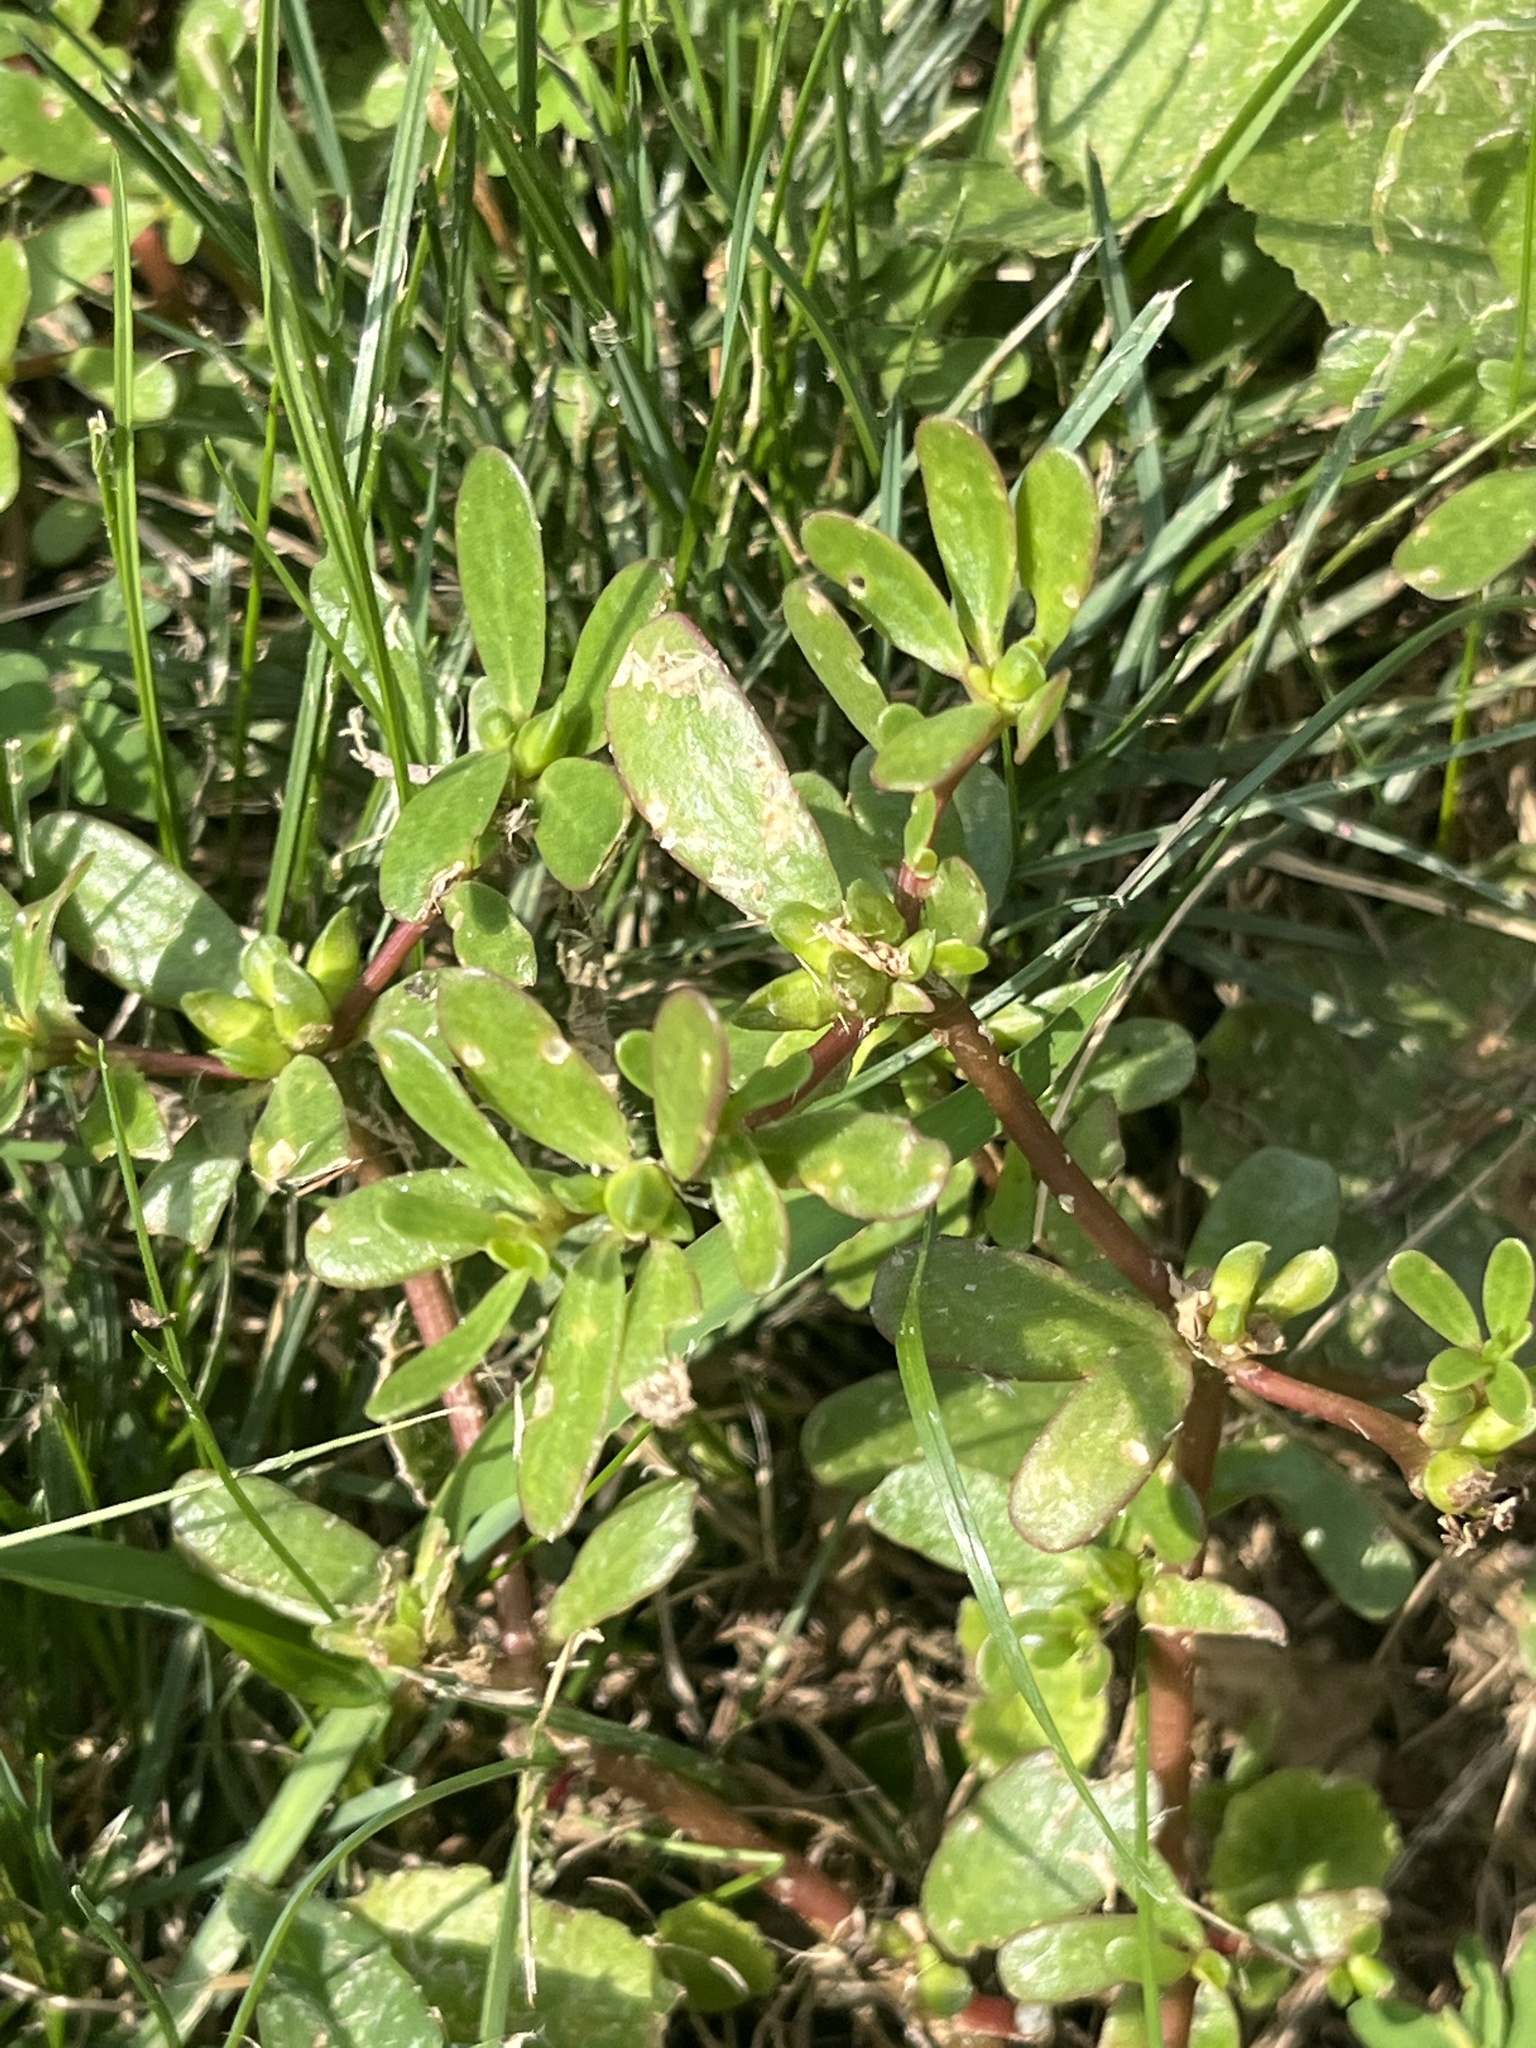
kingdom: Plantae
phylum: Tracheophyta
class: Magnoliopsida
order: Caryophyllales
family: Portulacaceae
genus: Portulaca
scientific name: Portulaca oleracea
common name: Common purslane
